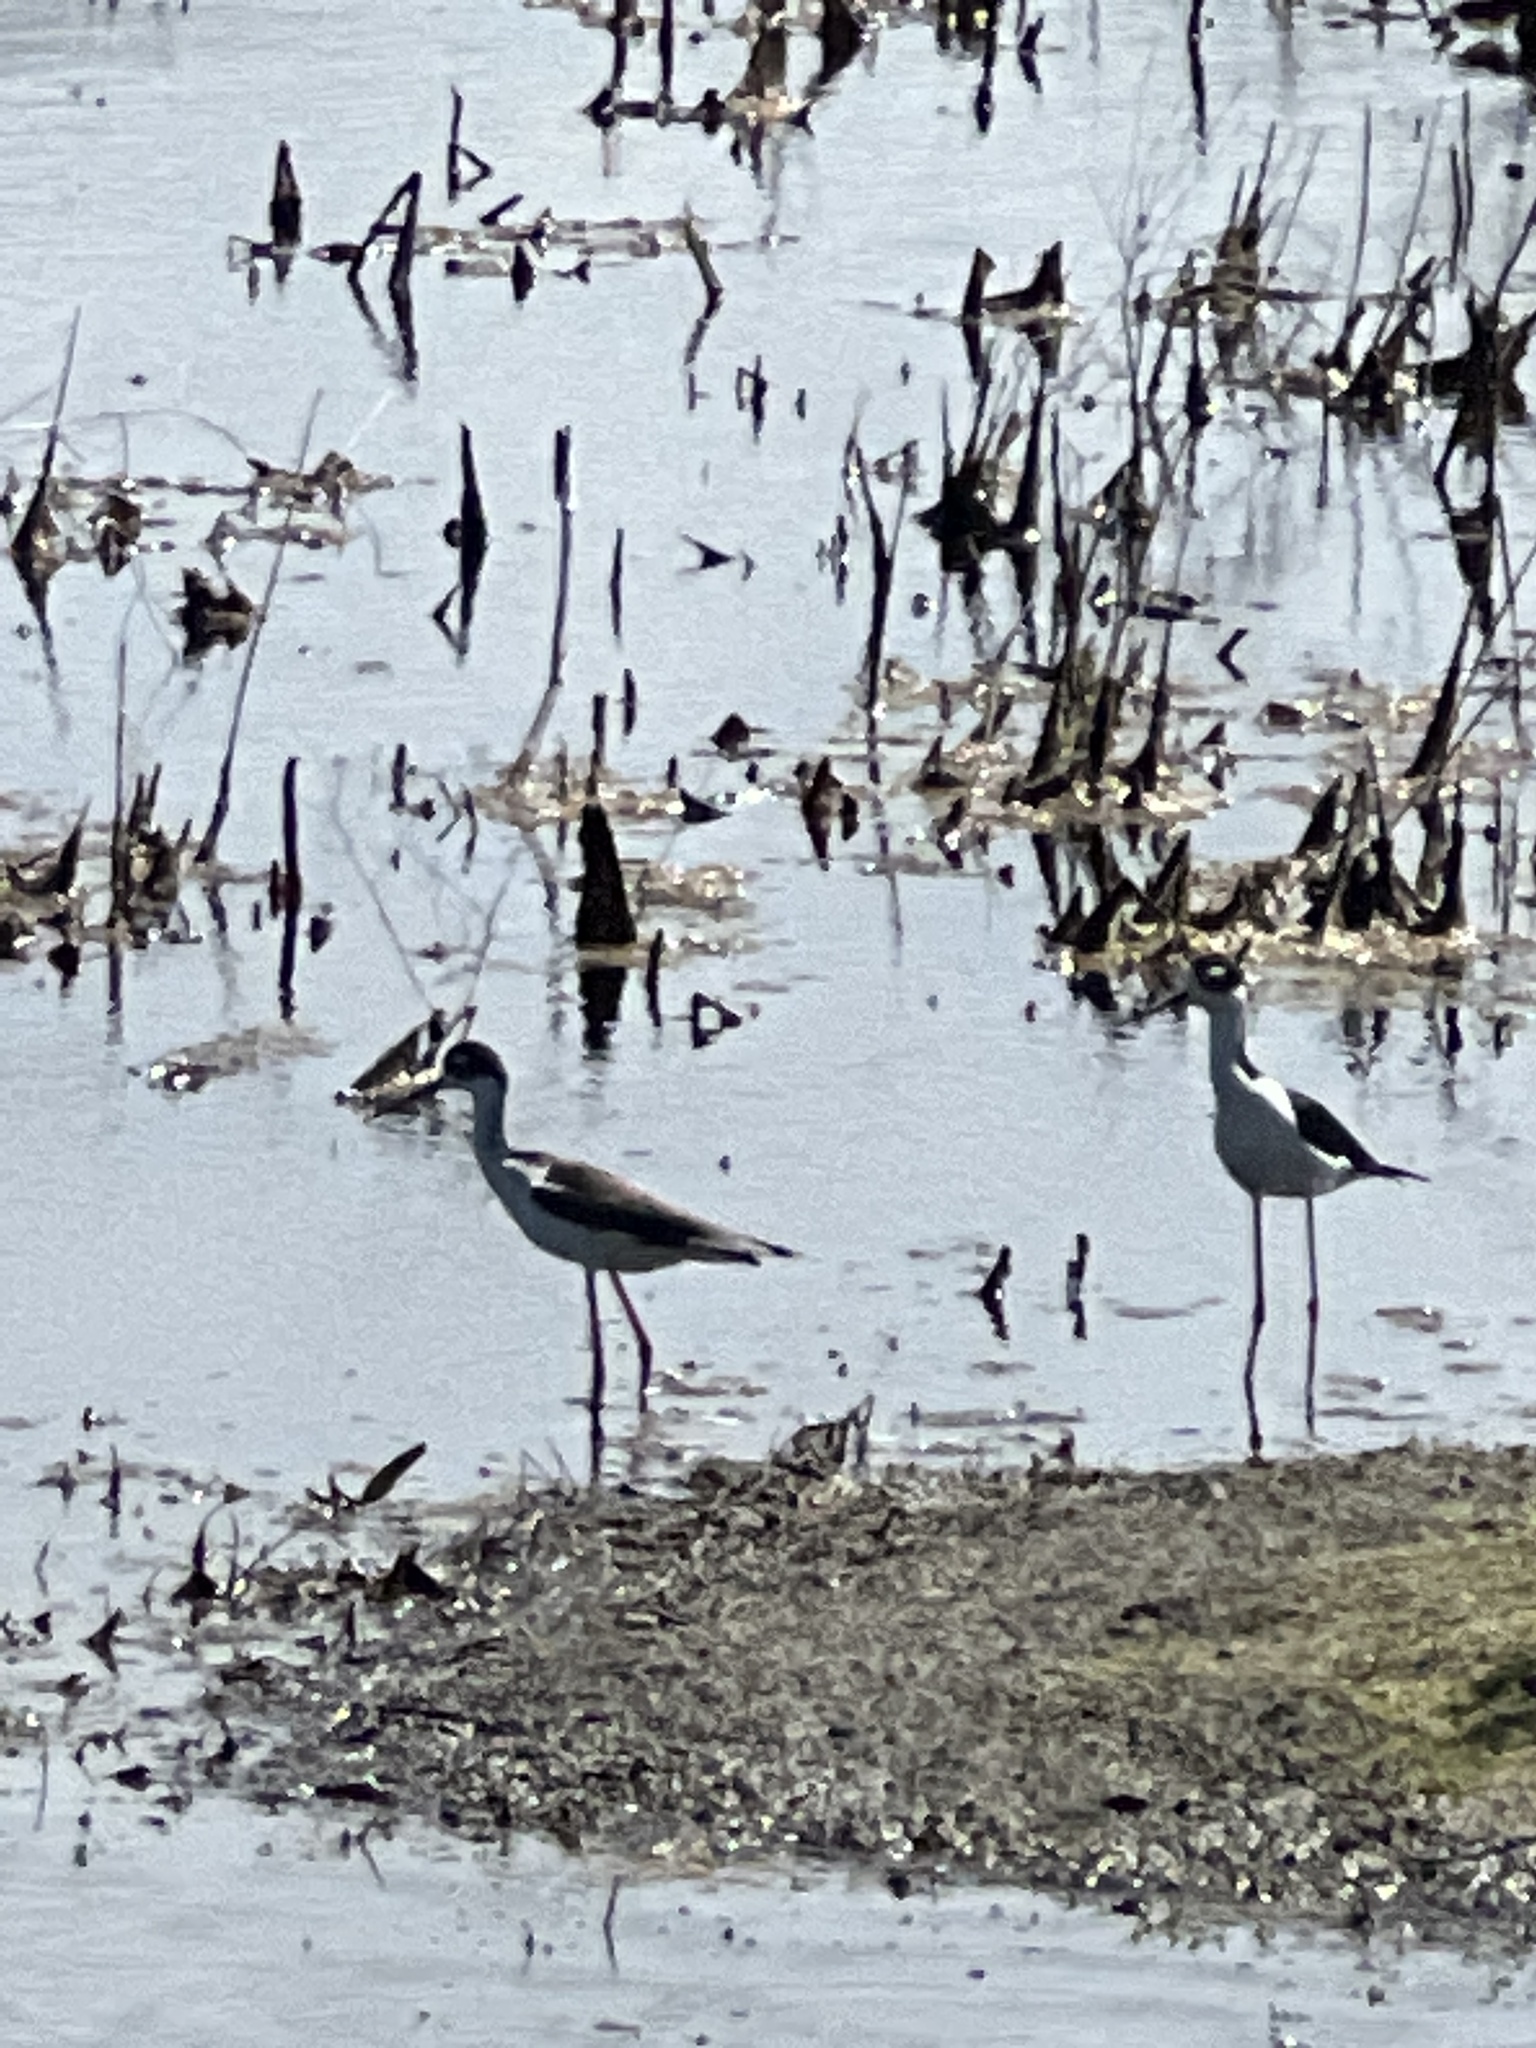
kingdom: Animalia
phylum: Chordata
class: Aves
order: Charadriiformes
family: Recurvirostridae
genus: Himantopus
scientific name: Himantopus mexicanus
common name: Black-necked stilt
